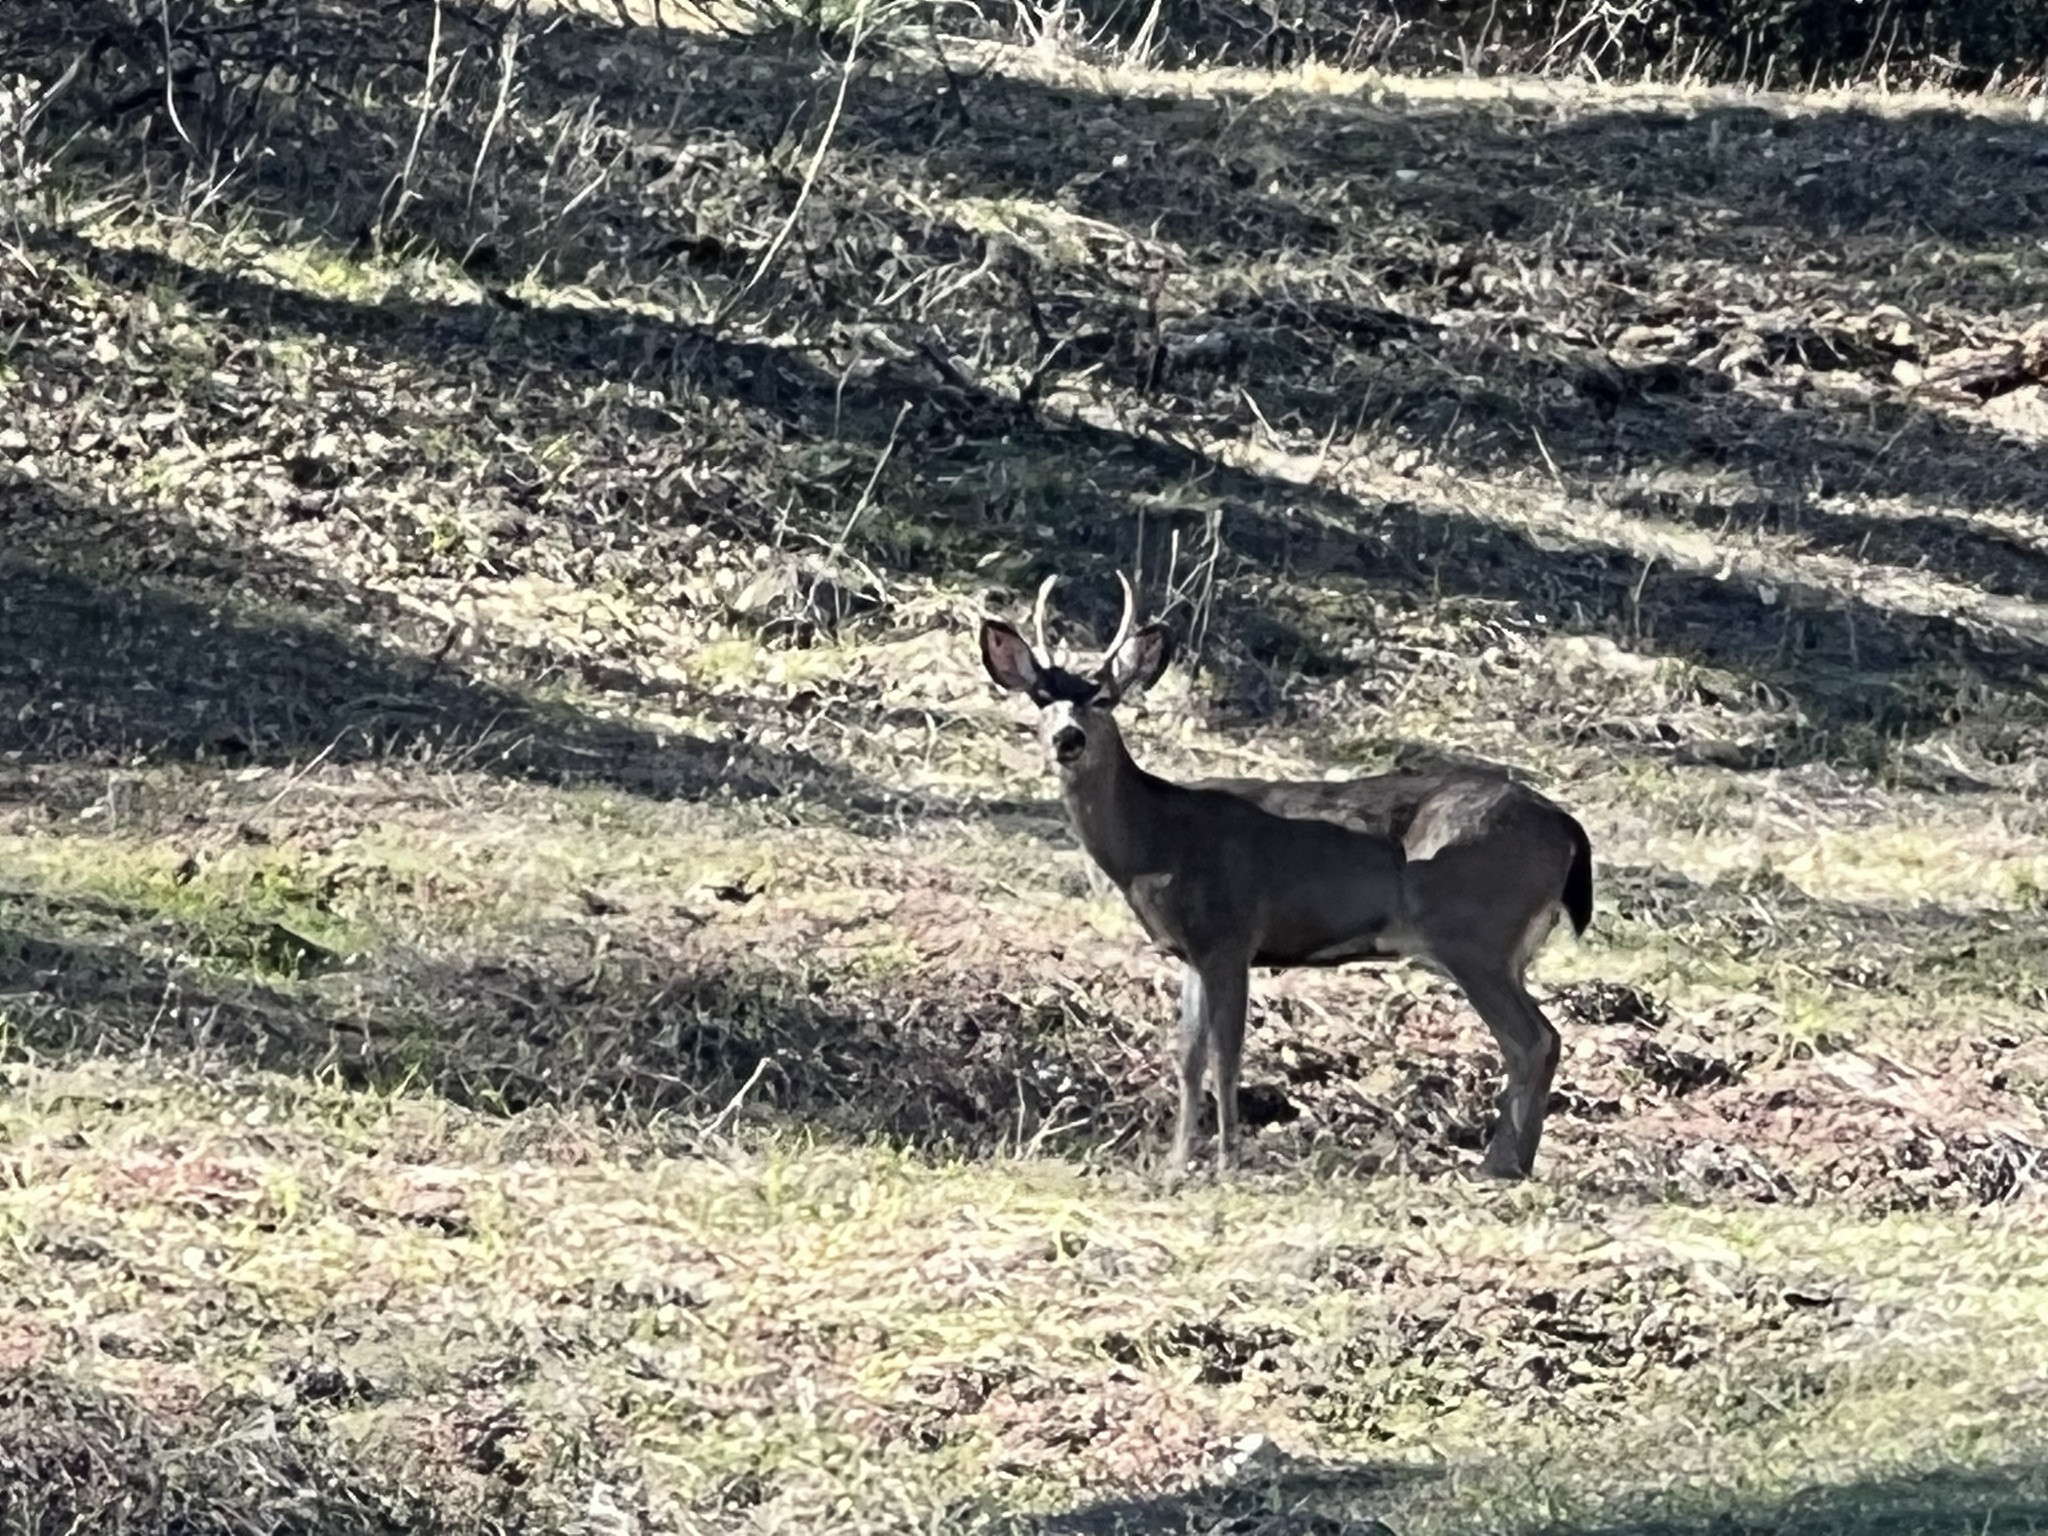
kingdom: Animalia
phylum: Chordata
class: Mammalia
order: Artiodactyla
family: Cervidae
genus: Odocoileus
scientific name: Odocoileus hemionus
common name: Mule deer
